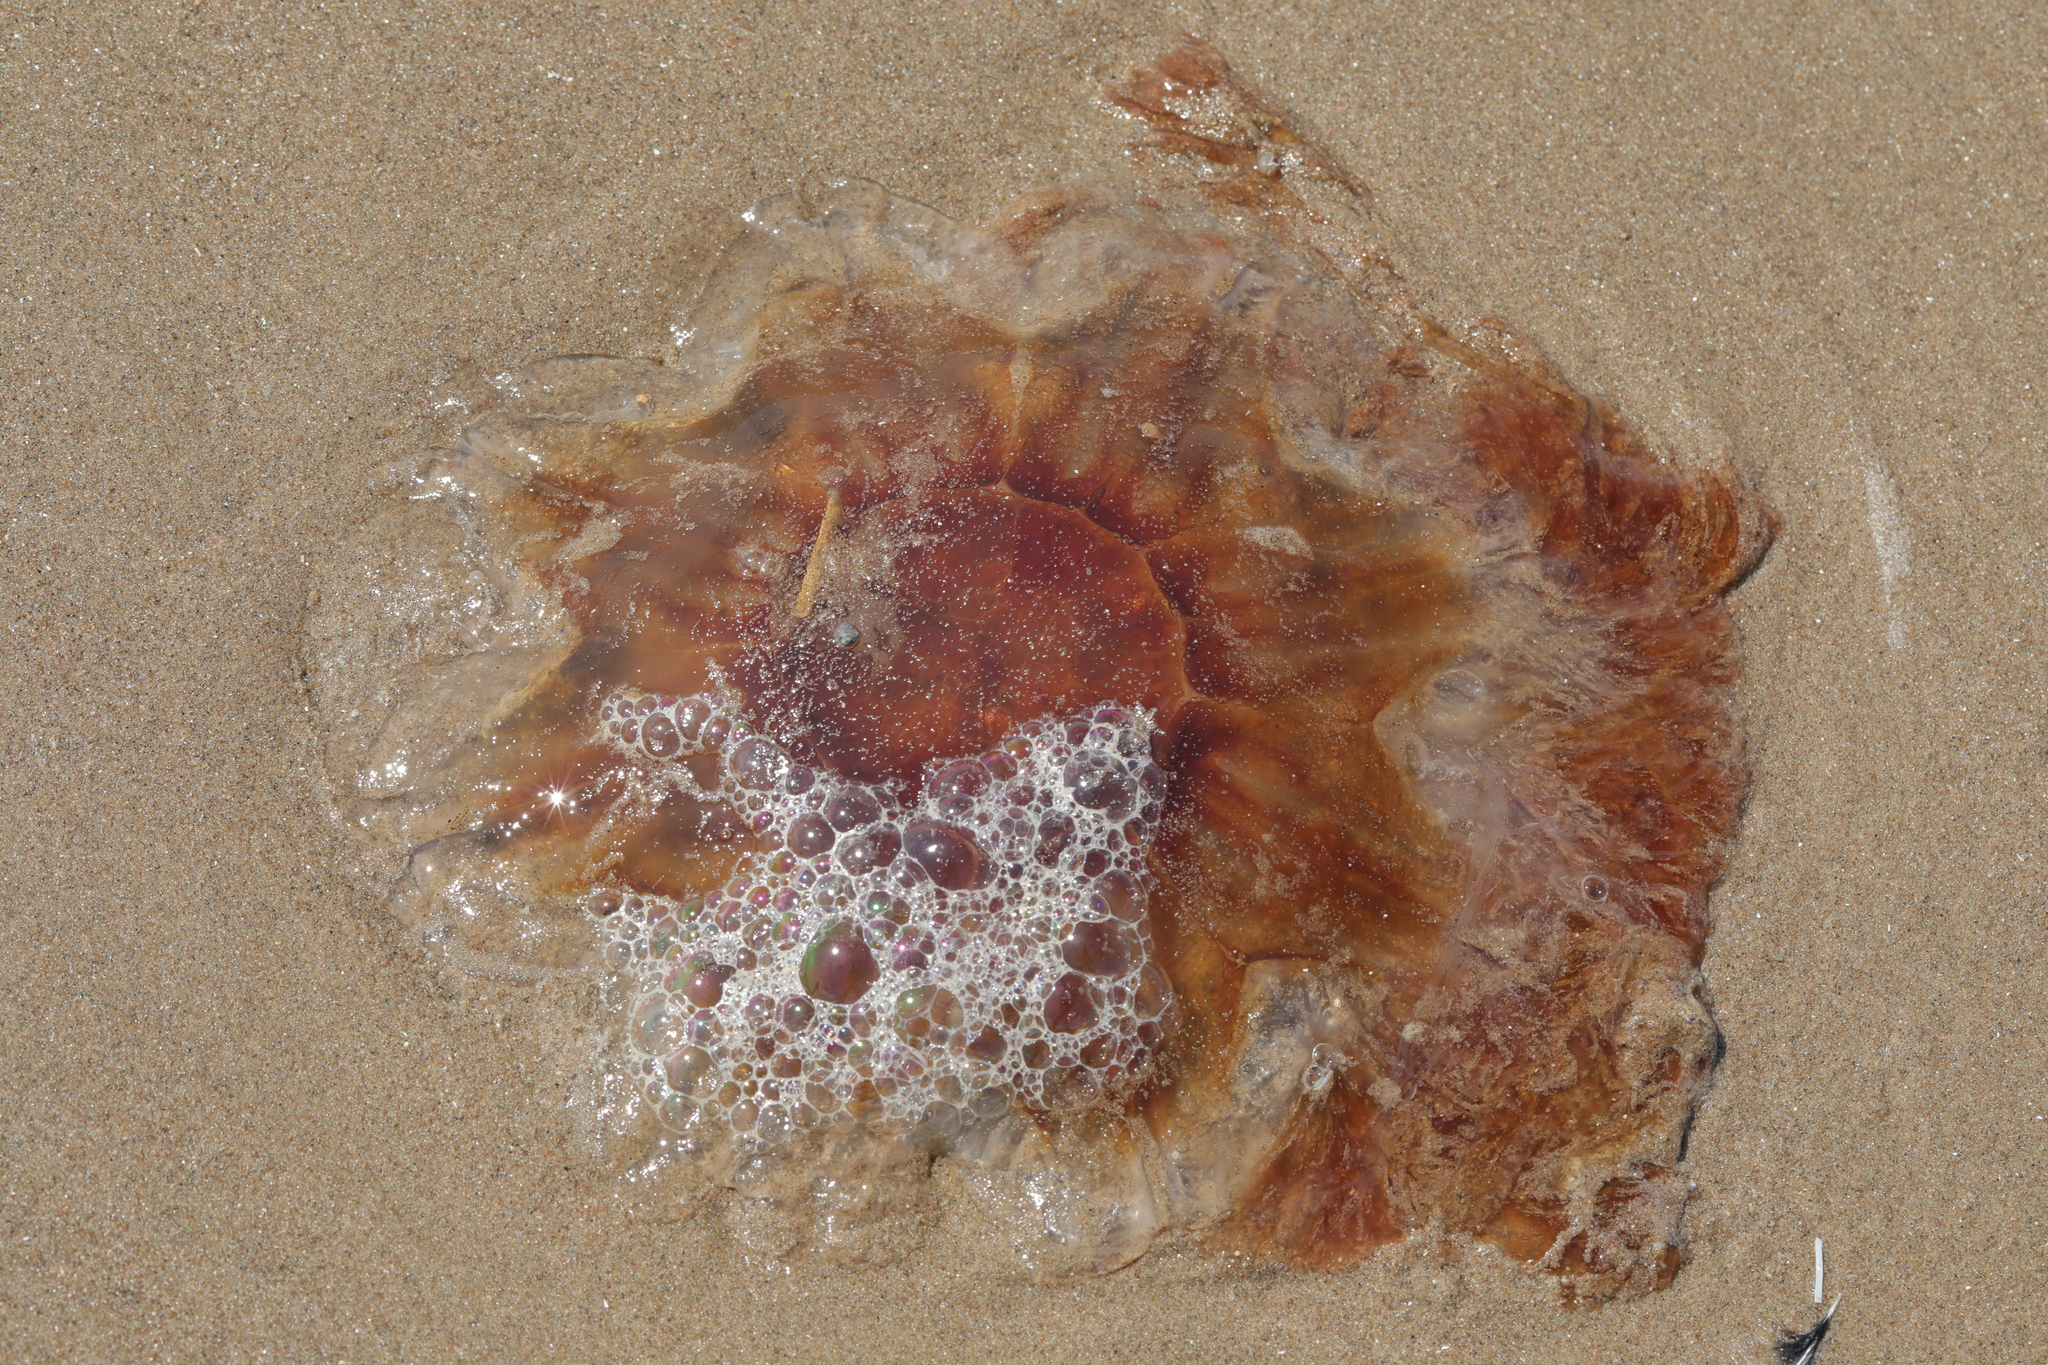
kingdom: Animalia
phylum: Cnidaria
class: Scyphozoa
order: Semaeostomeae
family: Cyaneidae
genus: Cyanea
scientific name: Cyanea capillata
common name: Lion's mane jellyfish
